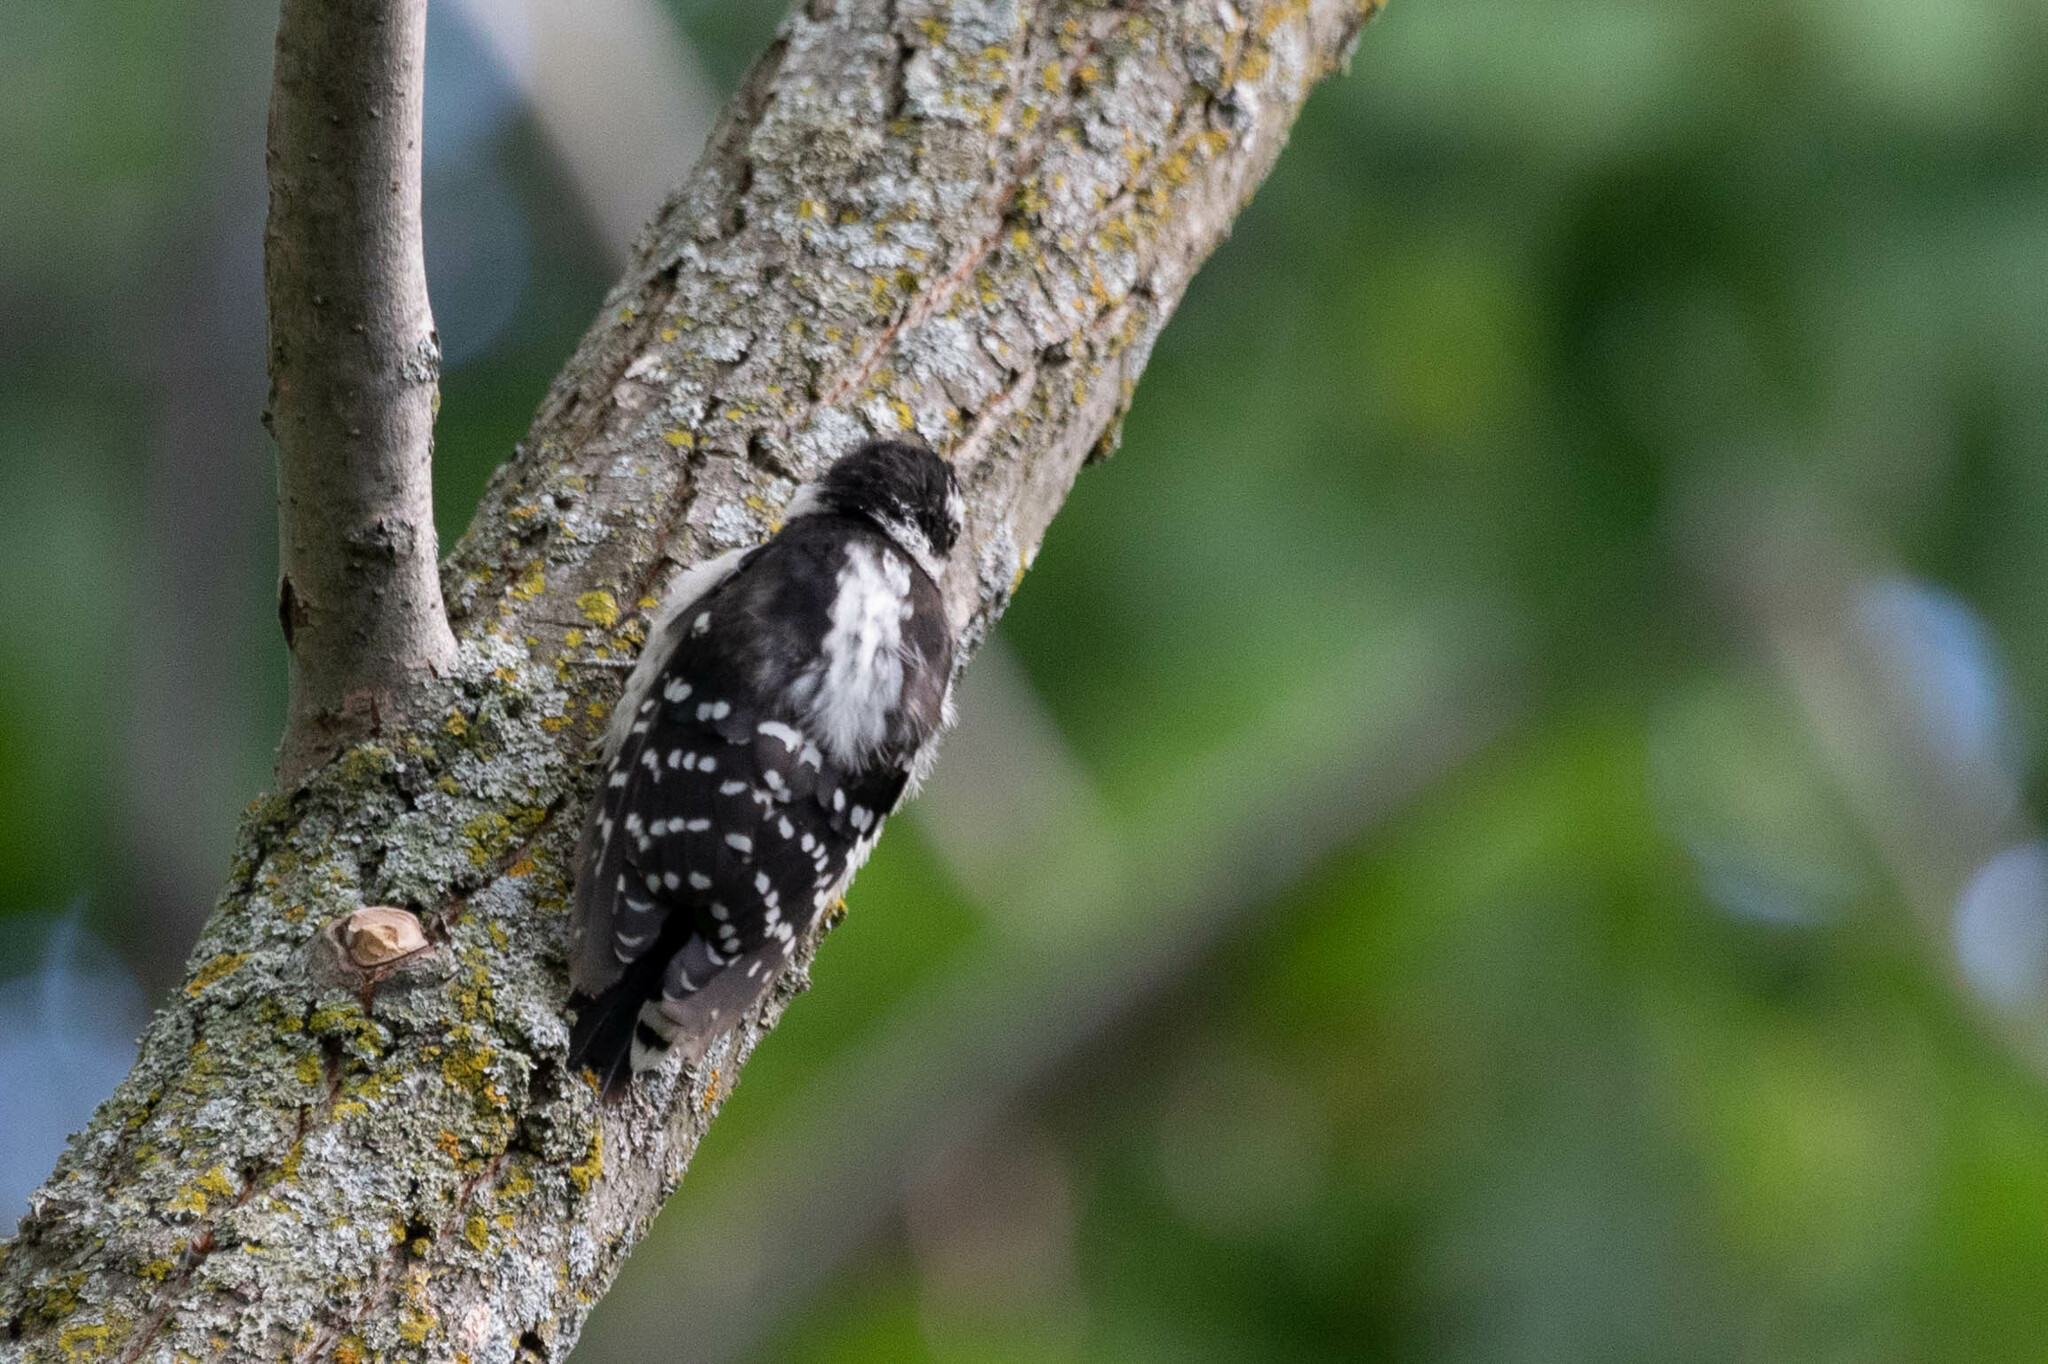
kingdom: Animalia
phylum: Chordata
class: Aves
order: Piciformes
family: Picidae
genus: Dryobates
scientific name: Dryobates pubescens
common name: Downy woodpecker
